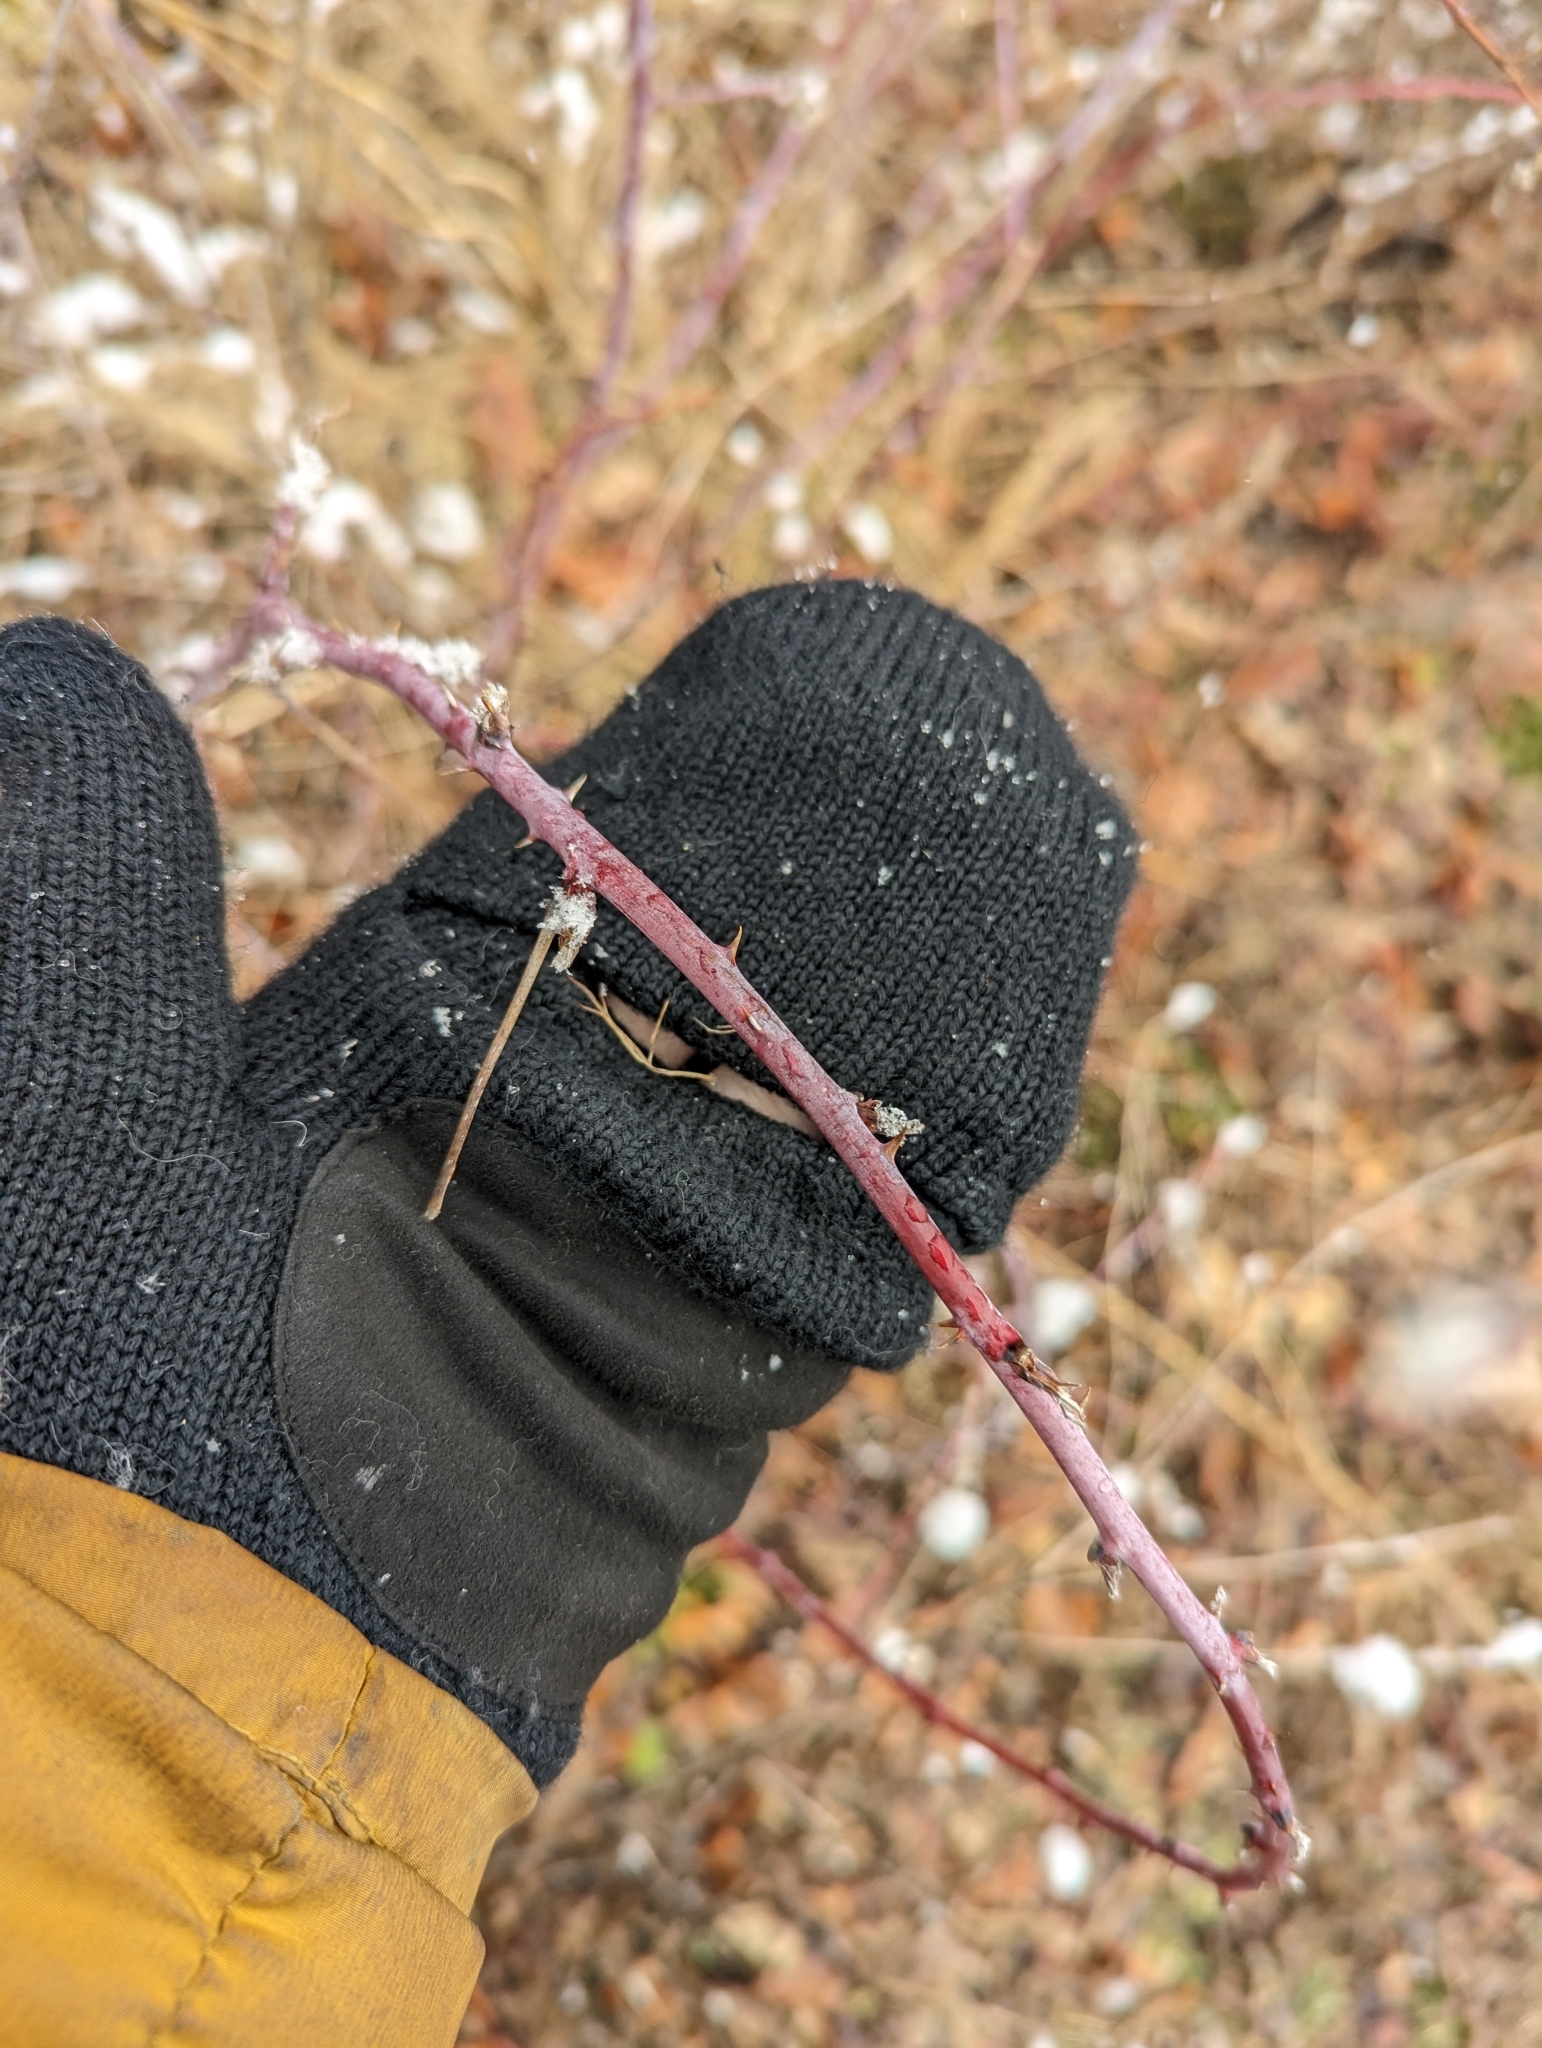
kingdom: Plantae
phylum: Tracheophyta
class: Magnoliopsida
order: Rosales
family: Rosaceae
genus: Rubus
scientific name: Rubus occidentalis
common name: Black raspberry
